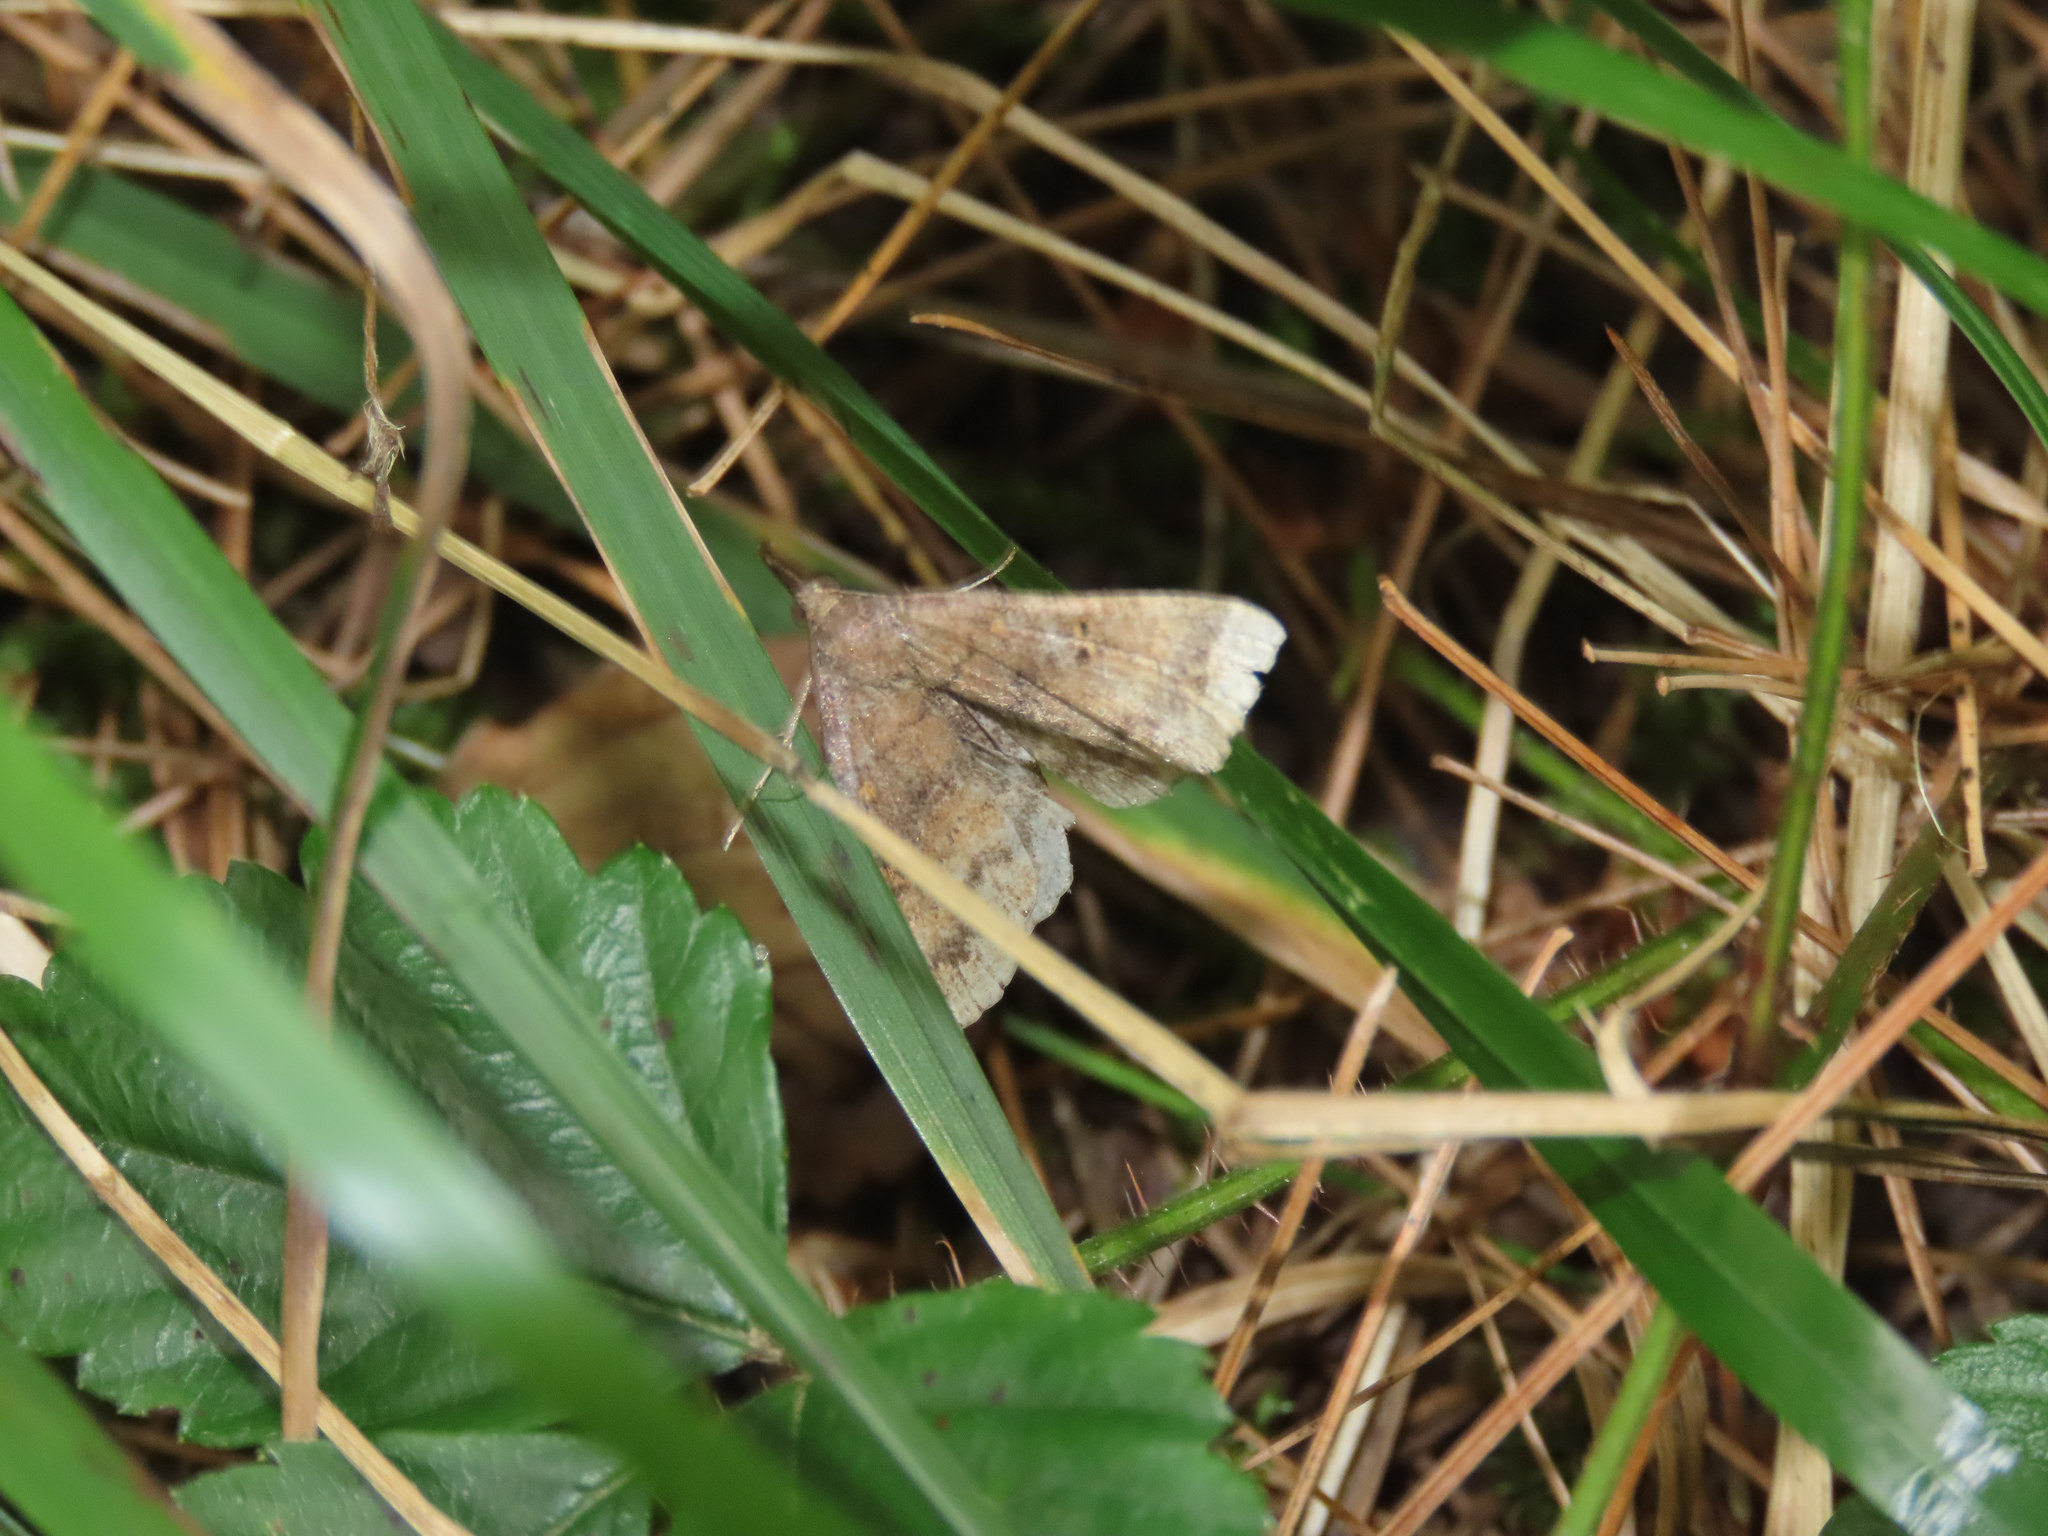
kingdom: Animalia
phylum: Arthropoda
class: Insecta
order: Lepidoptera
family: Erebidae
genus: Renia
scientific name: Renia factiosalis
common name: Sociable renia moth
